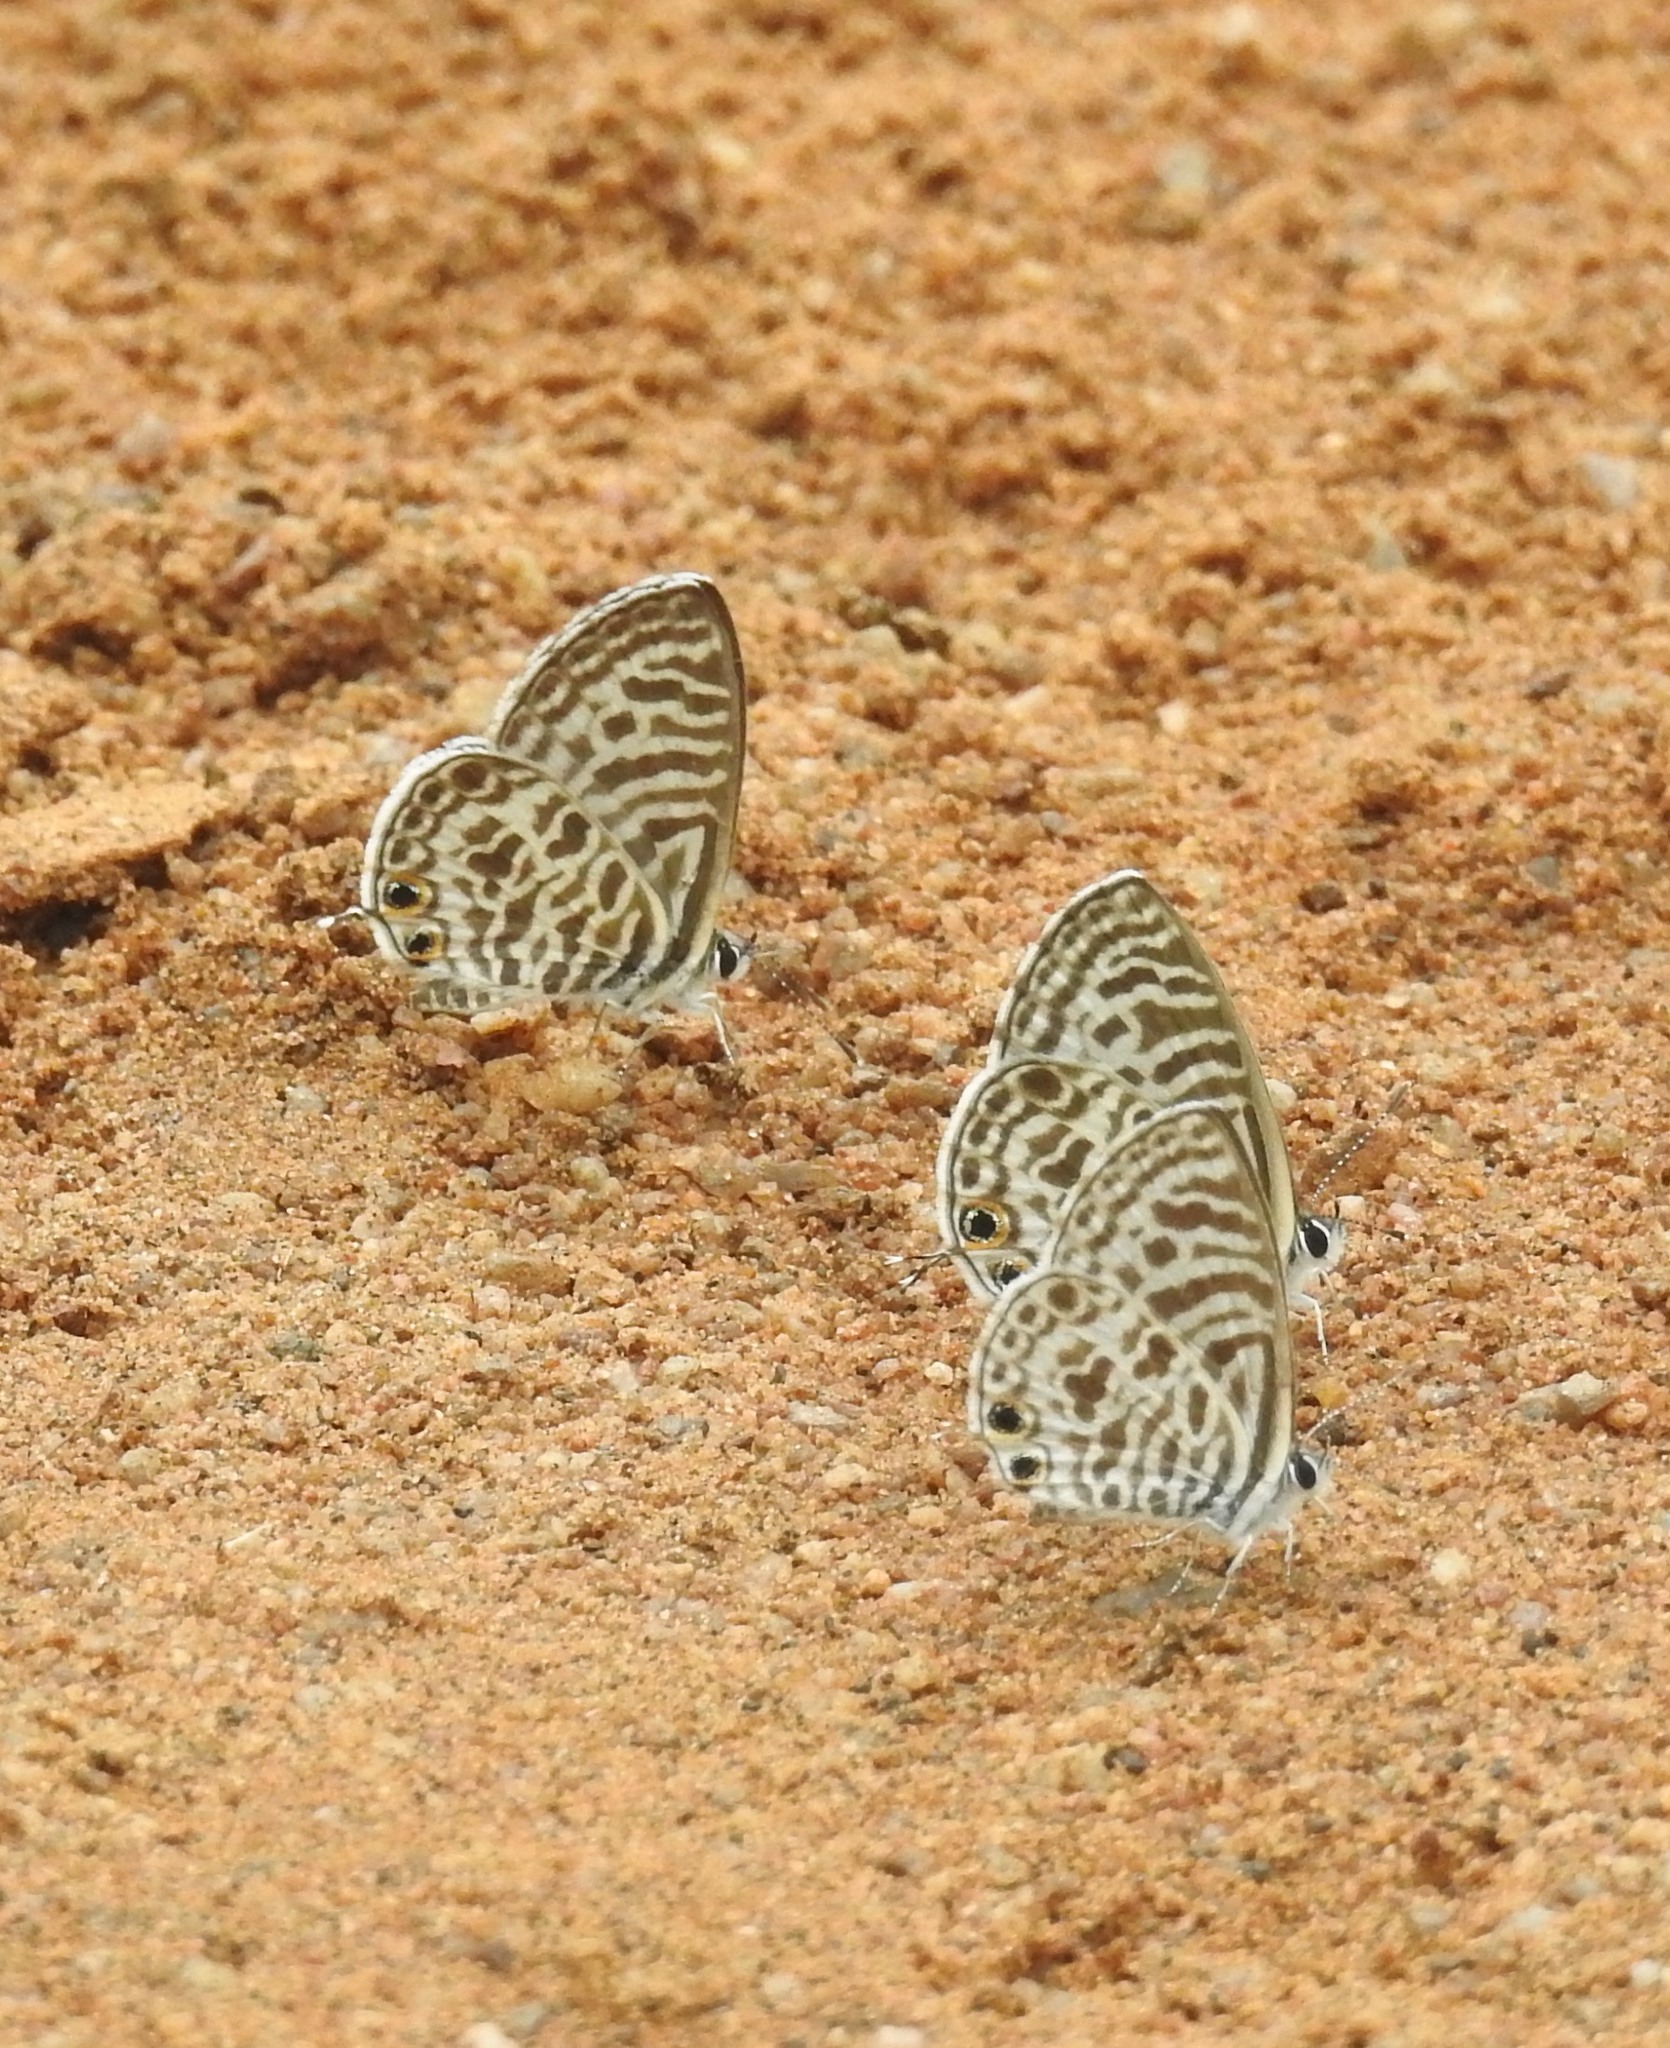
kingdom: Animalia
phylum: Arthropoda
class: Insecta
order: Lepidoptera
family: Lycaenidae
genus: Leptotes
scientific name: Leptotes plinius
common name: Zebra blue
